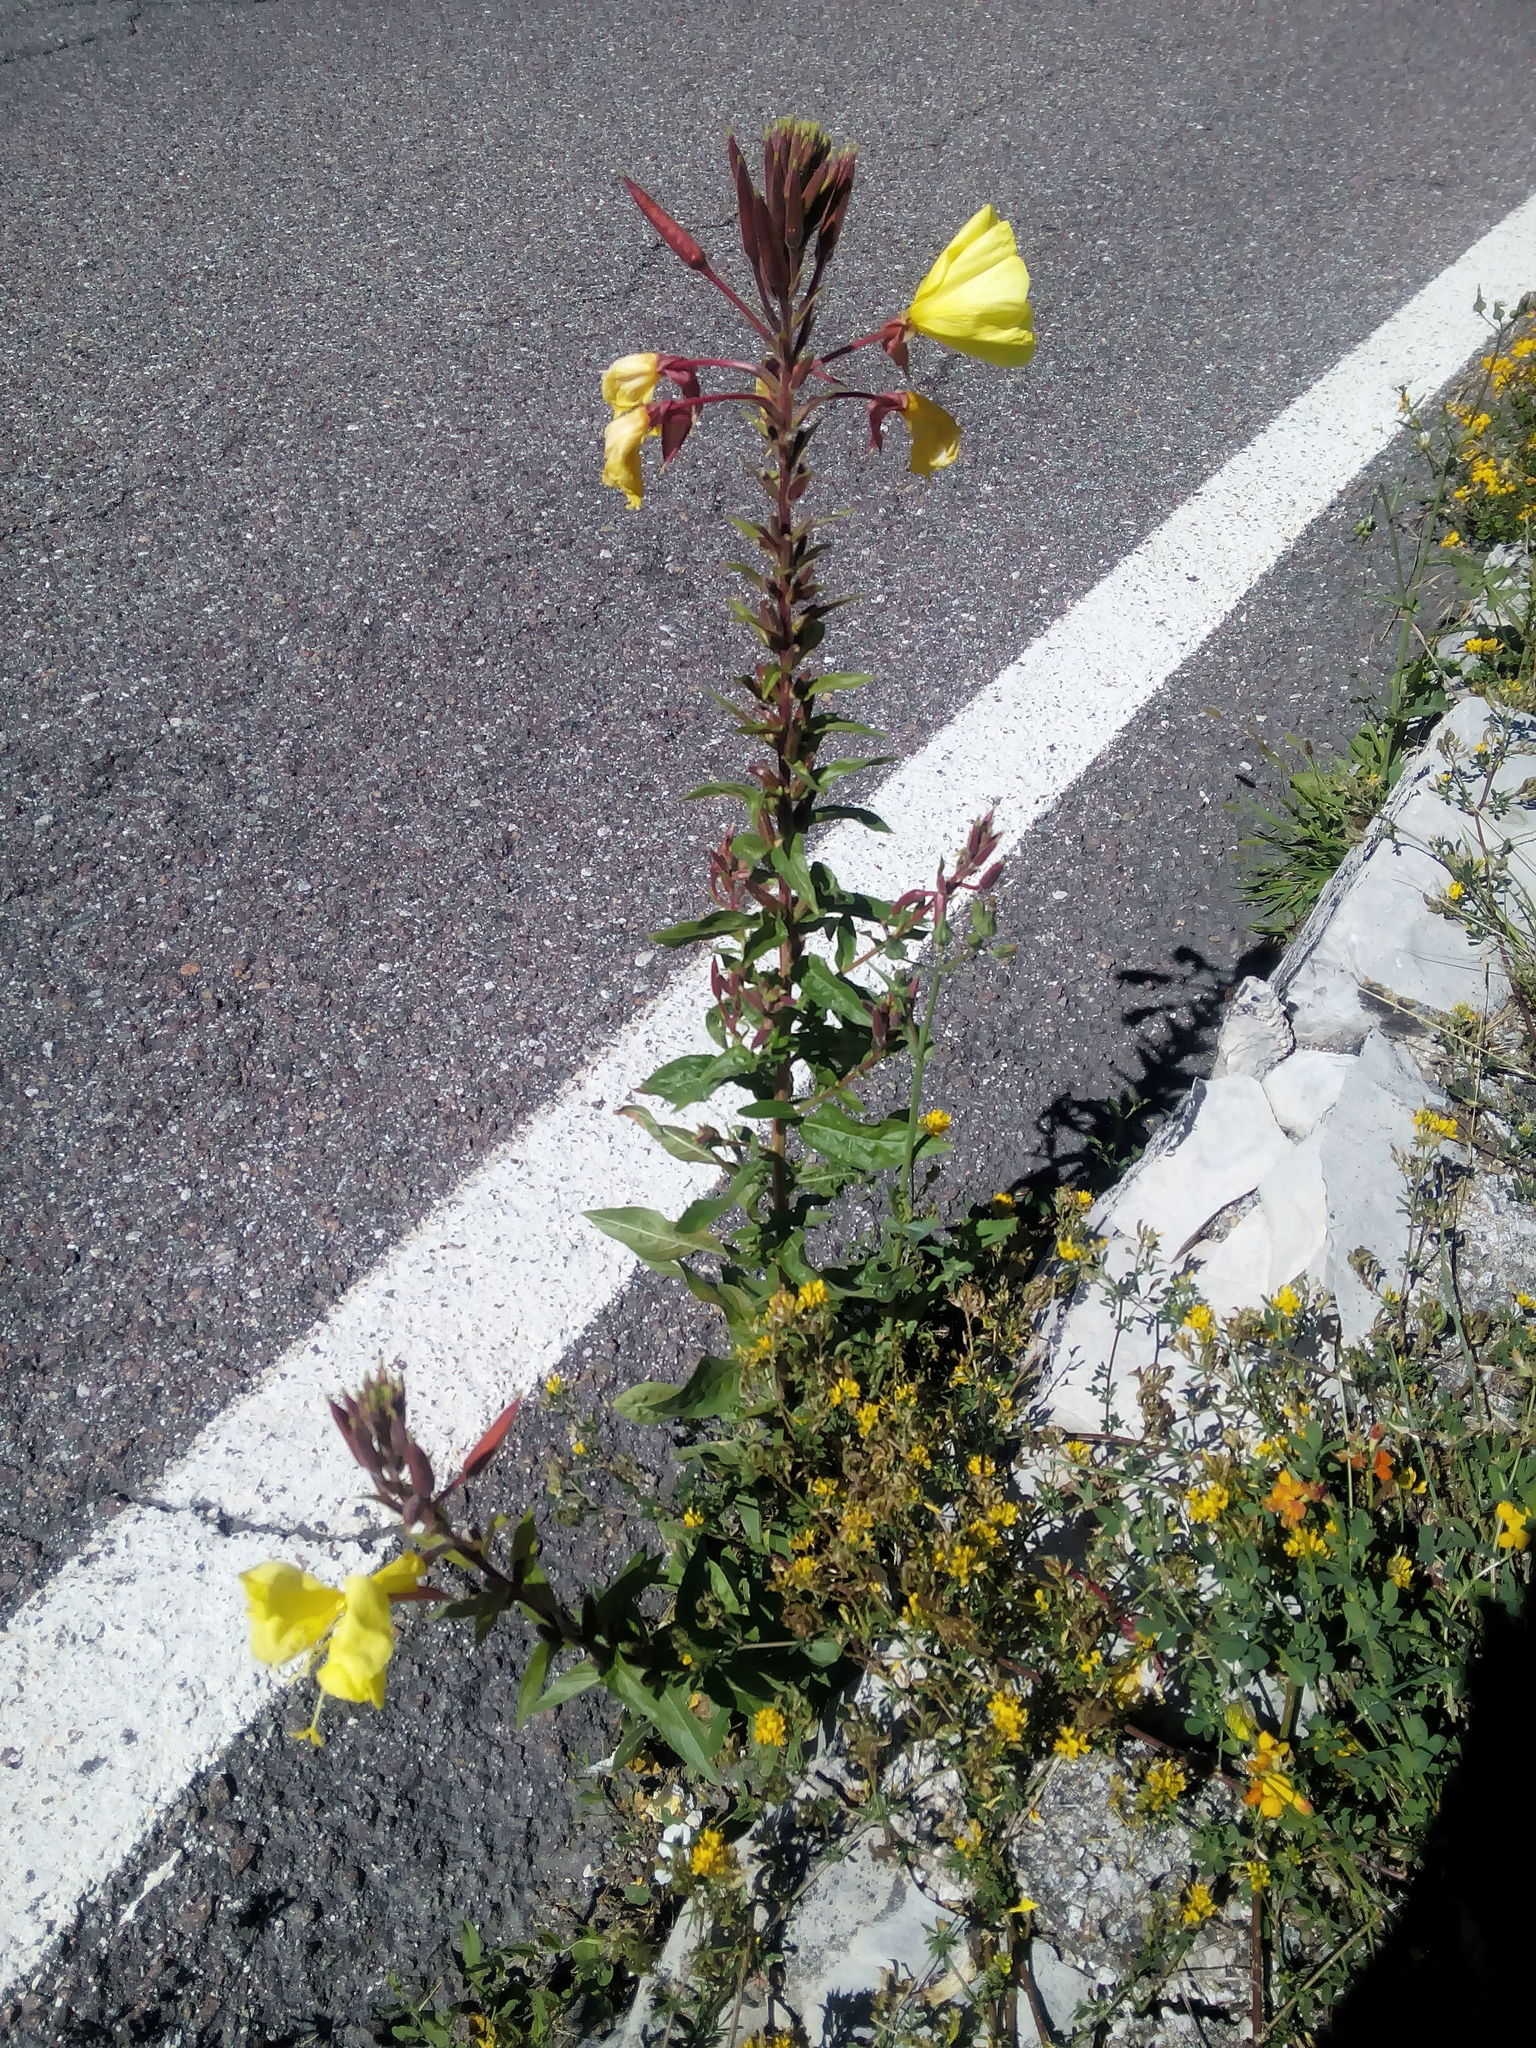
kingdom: Plantae
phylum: Tracheophyta
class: Magnoliopsida
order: Myrtales
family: Onagraceae
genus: Oenothera
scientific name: Oenothera glazioviana
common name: Large-flowered evening-primrose
